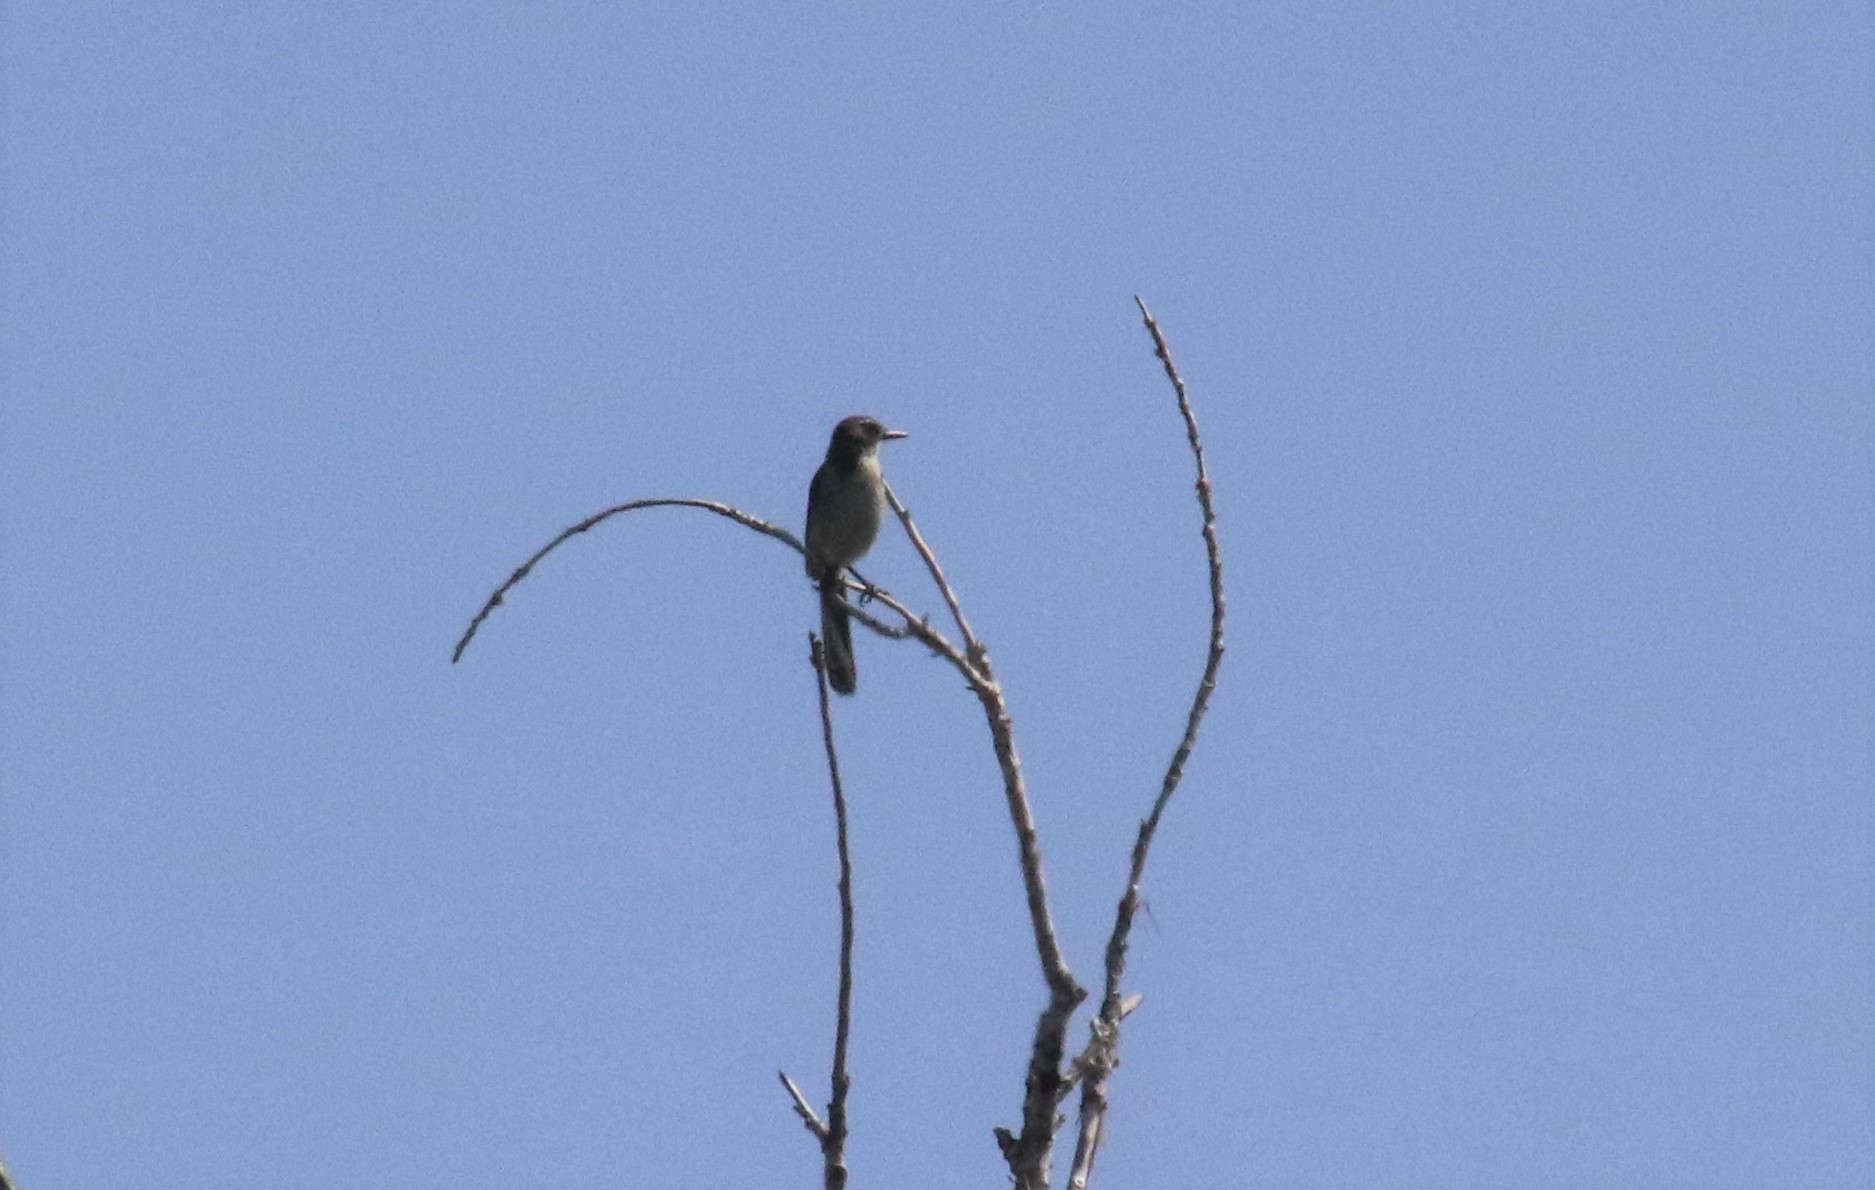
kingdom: Animalia
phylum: Chordata
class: Aves
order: Passeriformes
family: Corvidae
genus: Aphelocoma
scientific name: Aphelocoma californica
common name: California scrub-jay
